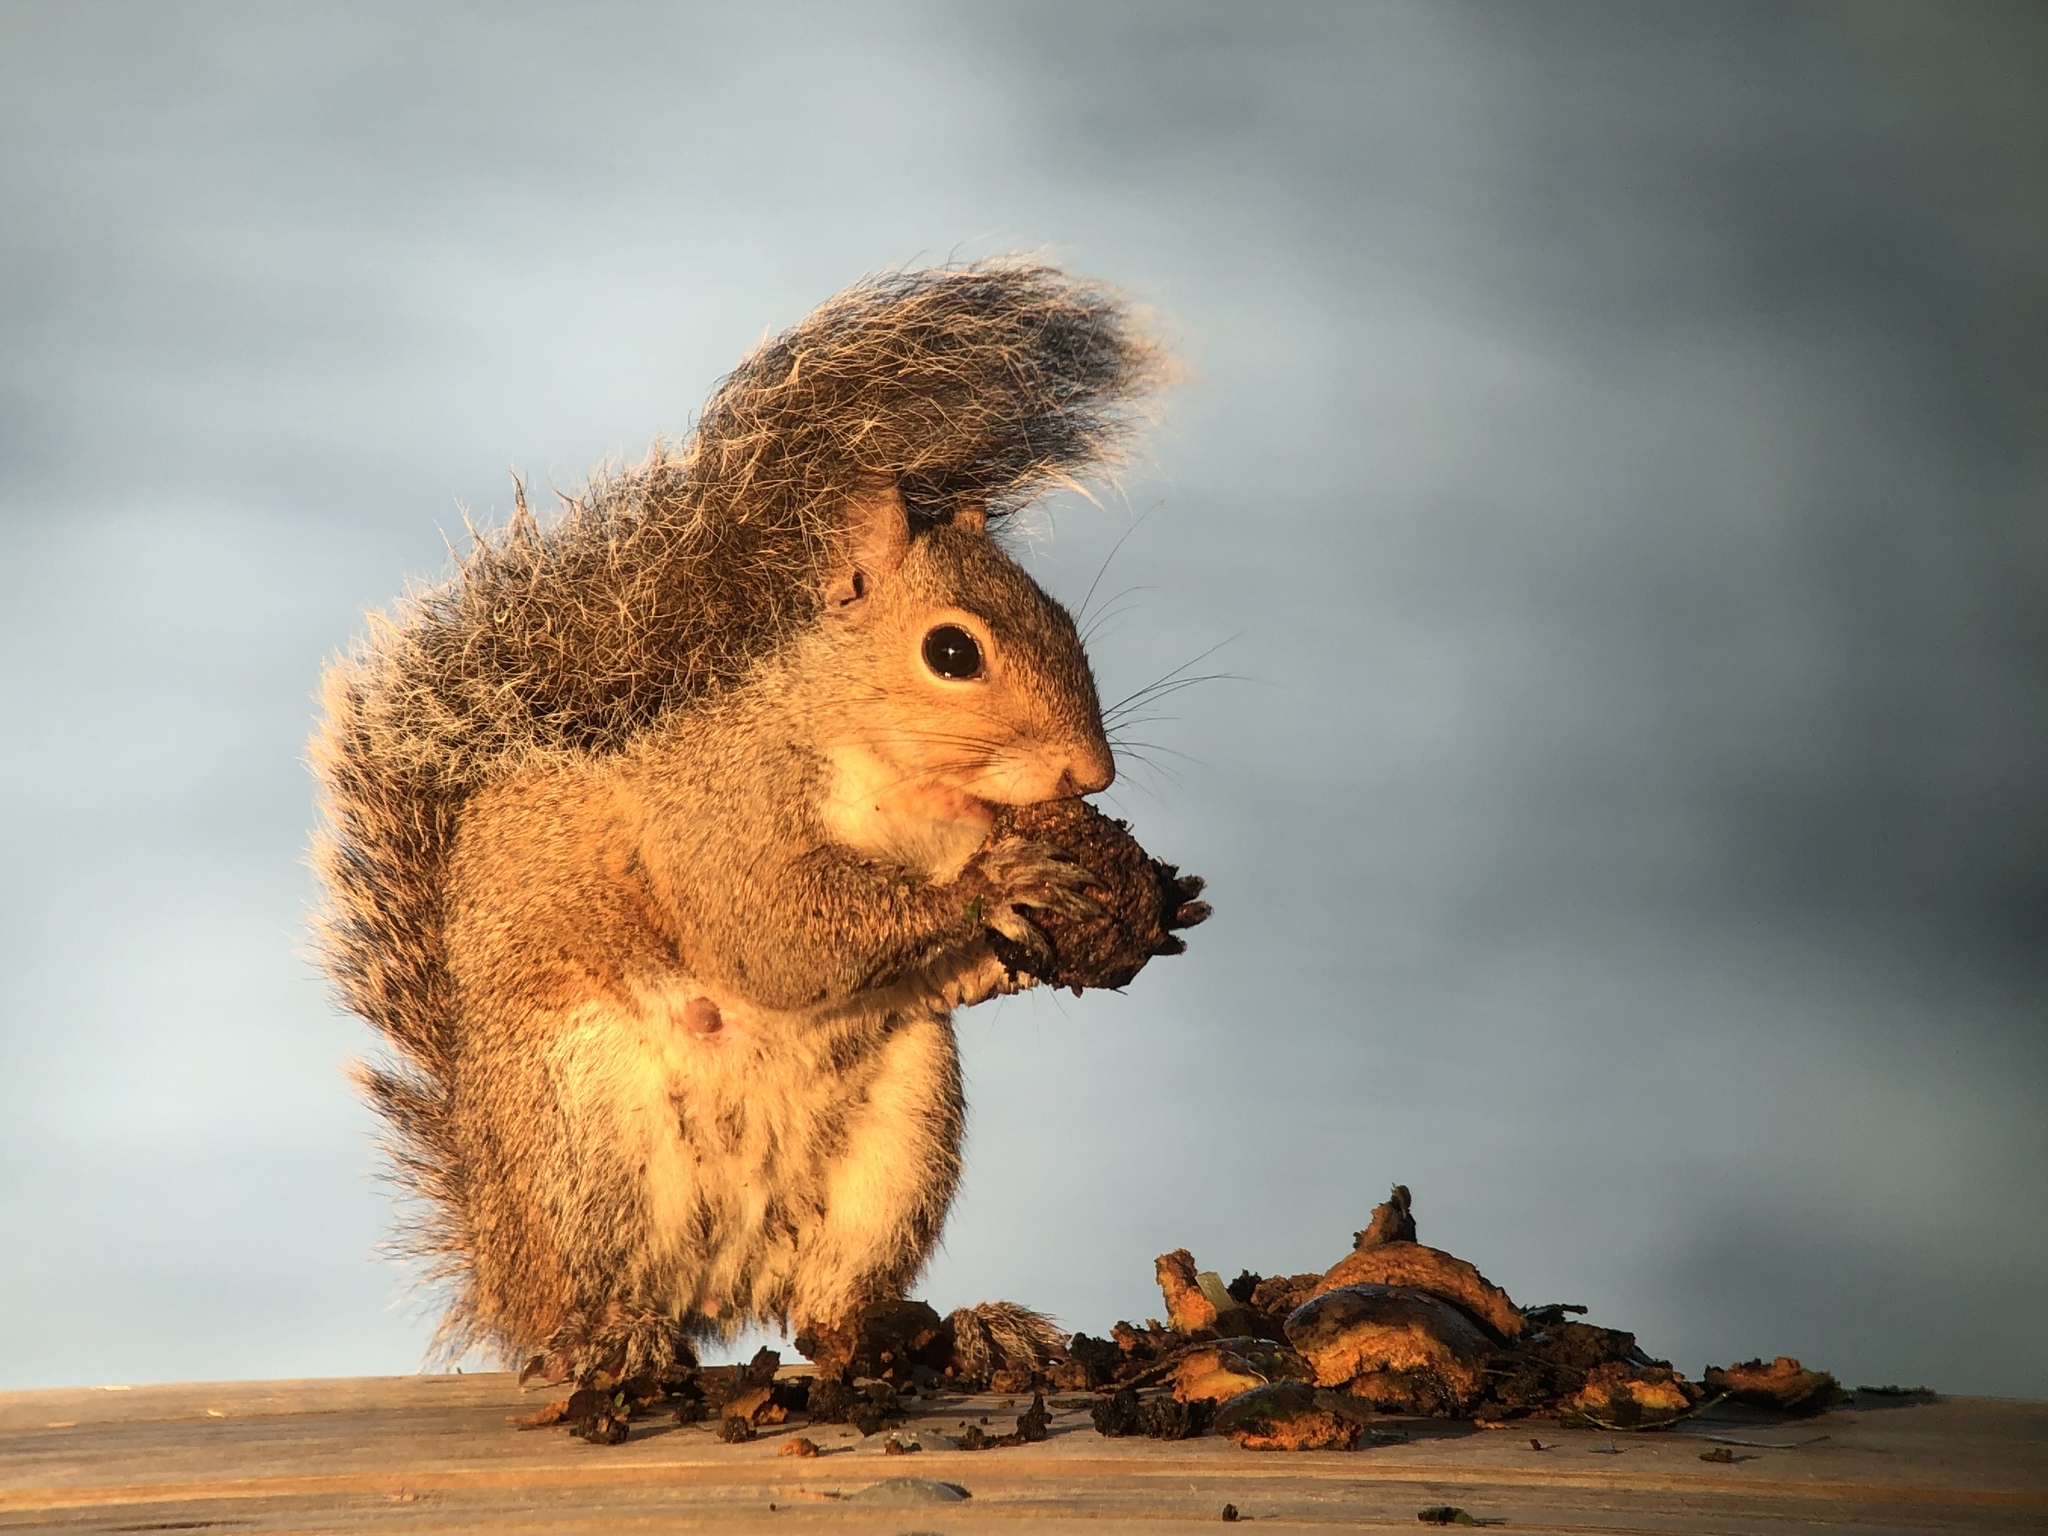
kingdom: Animalia
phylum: Chordata
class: Mammalia
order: Rodentia
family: Sciuridae
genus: Sciurus
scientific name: Sciurus carolinensis
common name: Eastern gray squirrel
